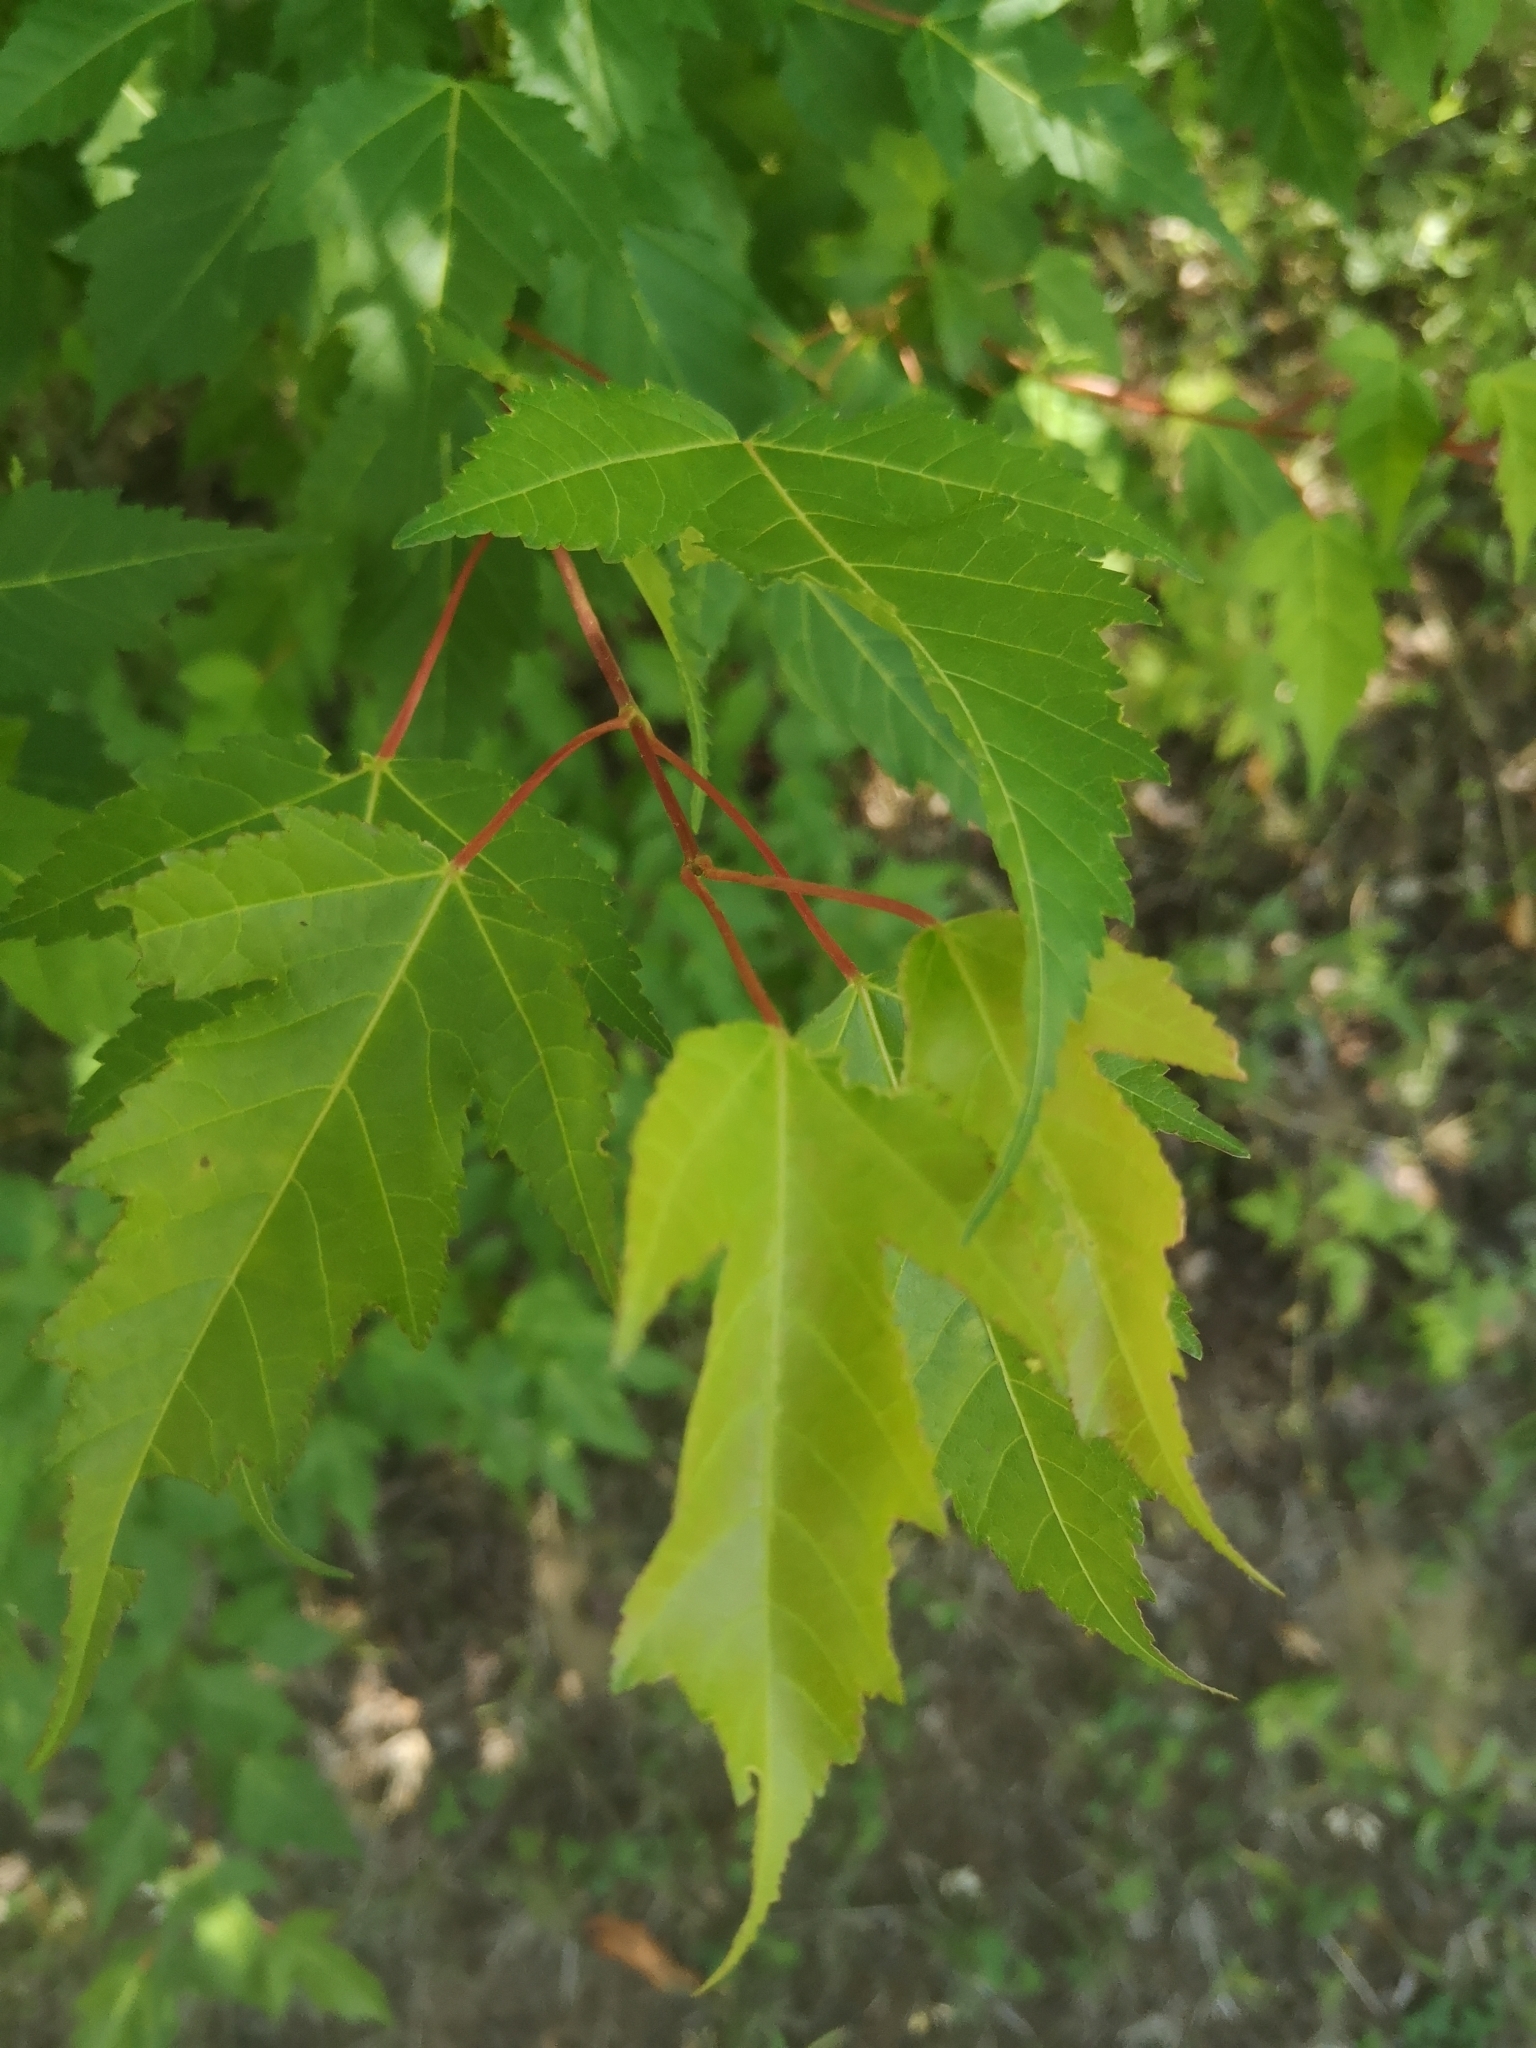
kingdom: Plantae
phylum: Tracheophyta
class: Magnoliopsida
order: Sapindales
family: Sapindaceae
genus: Acer
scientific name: Acer tataricum
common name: Tartar maple
